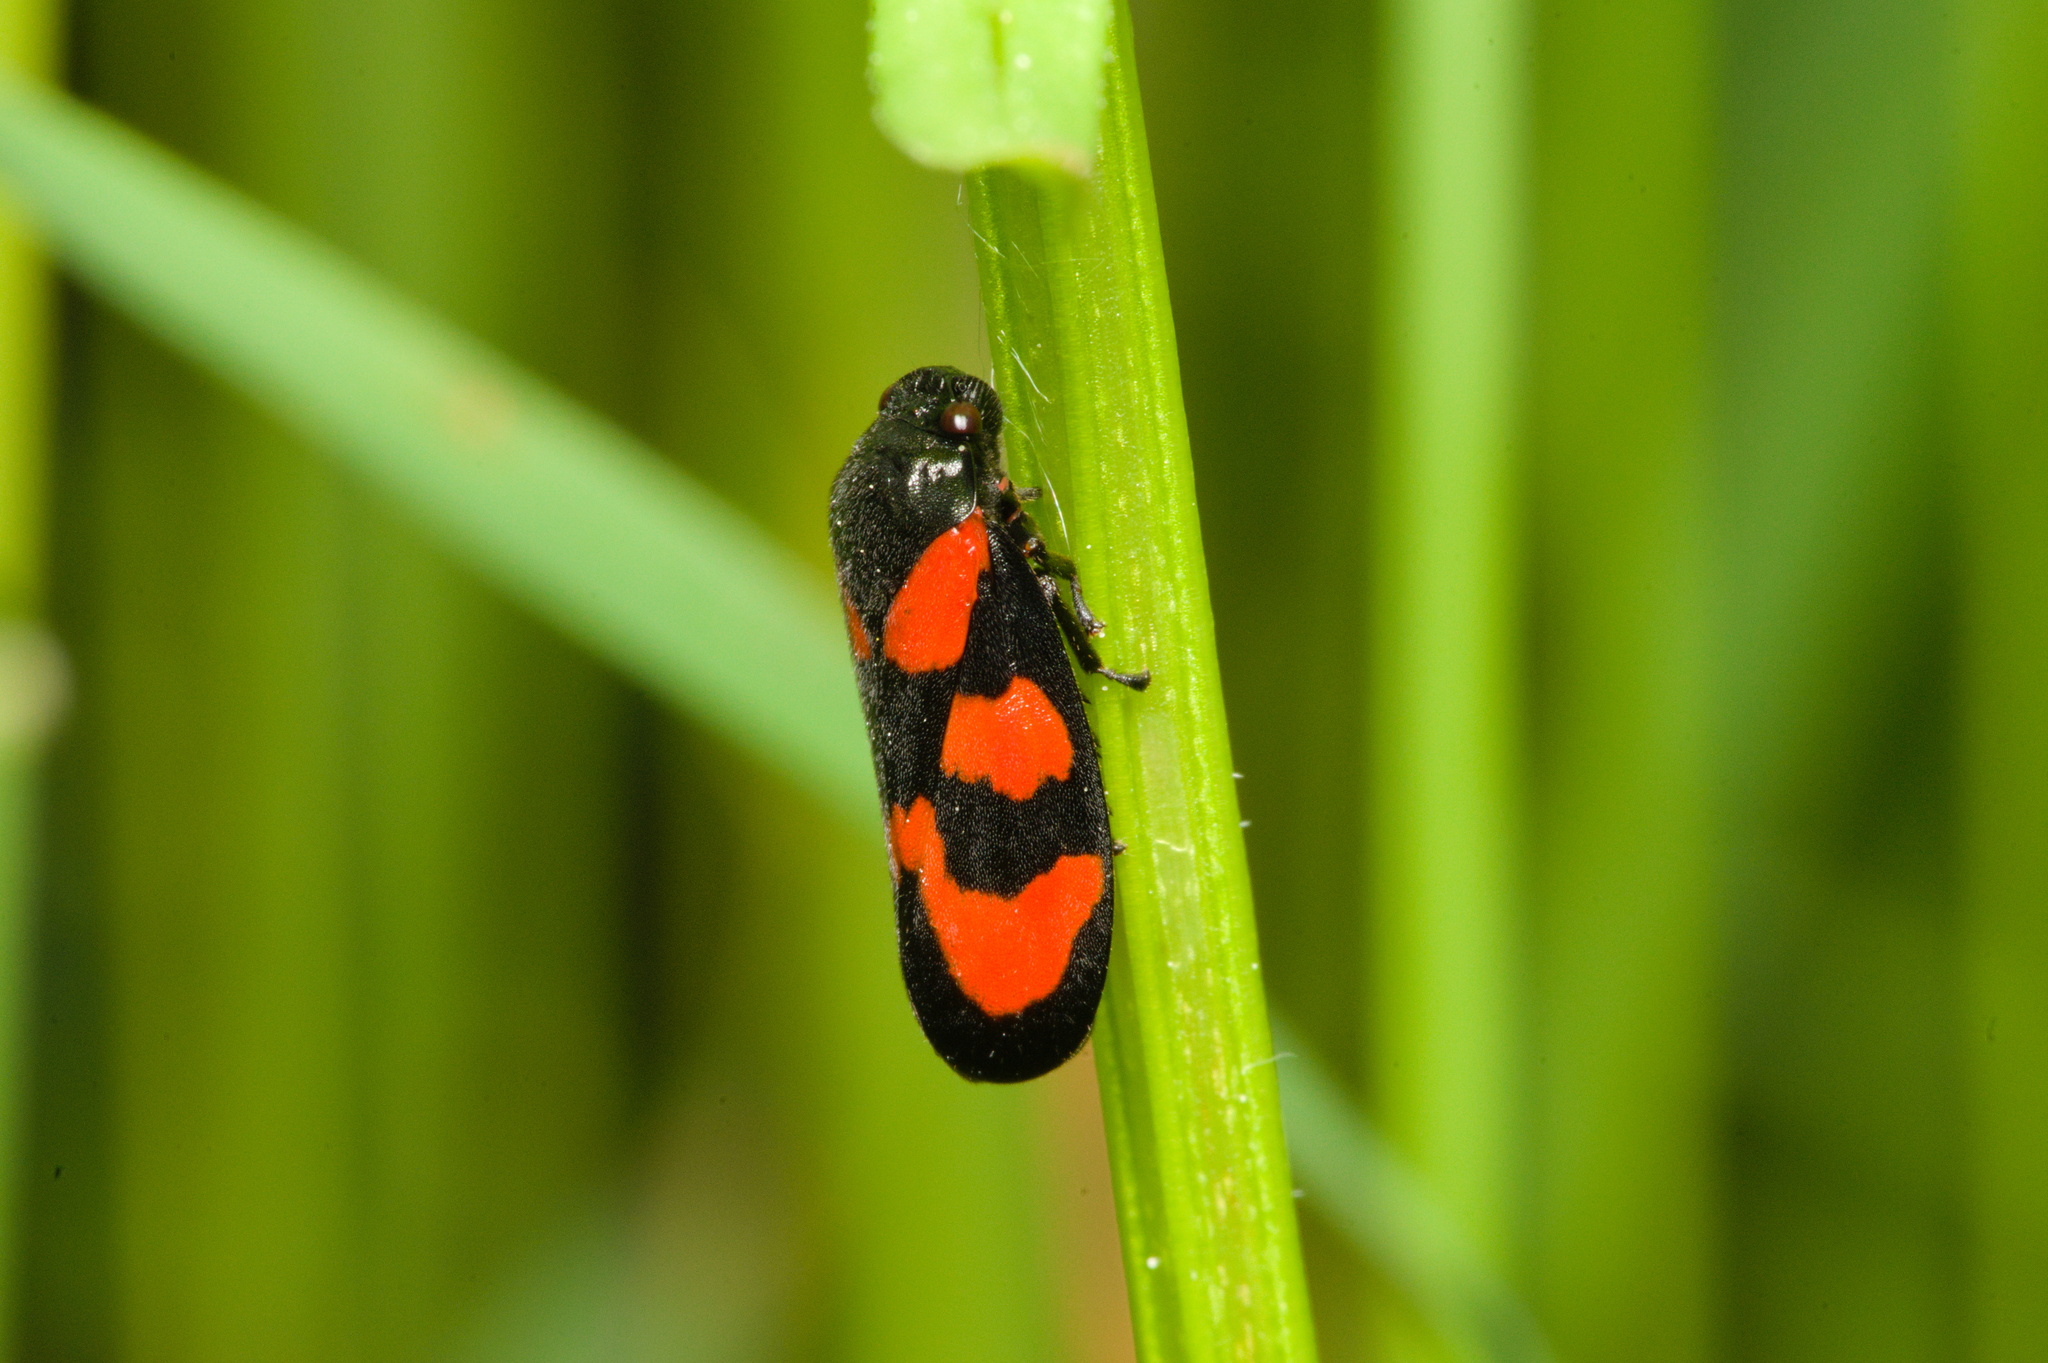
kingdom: Animalia
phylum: Arthropoda
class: Insecta
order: Hemiptera
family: Cercopidae
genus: Cercopis
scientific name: Cercopis vulnerata
